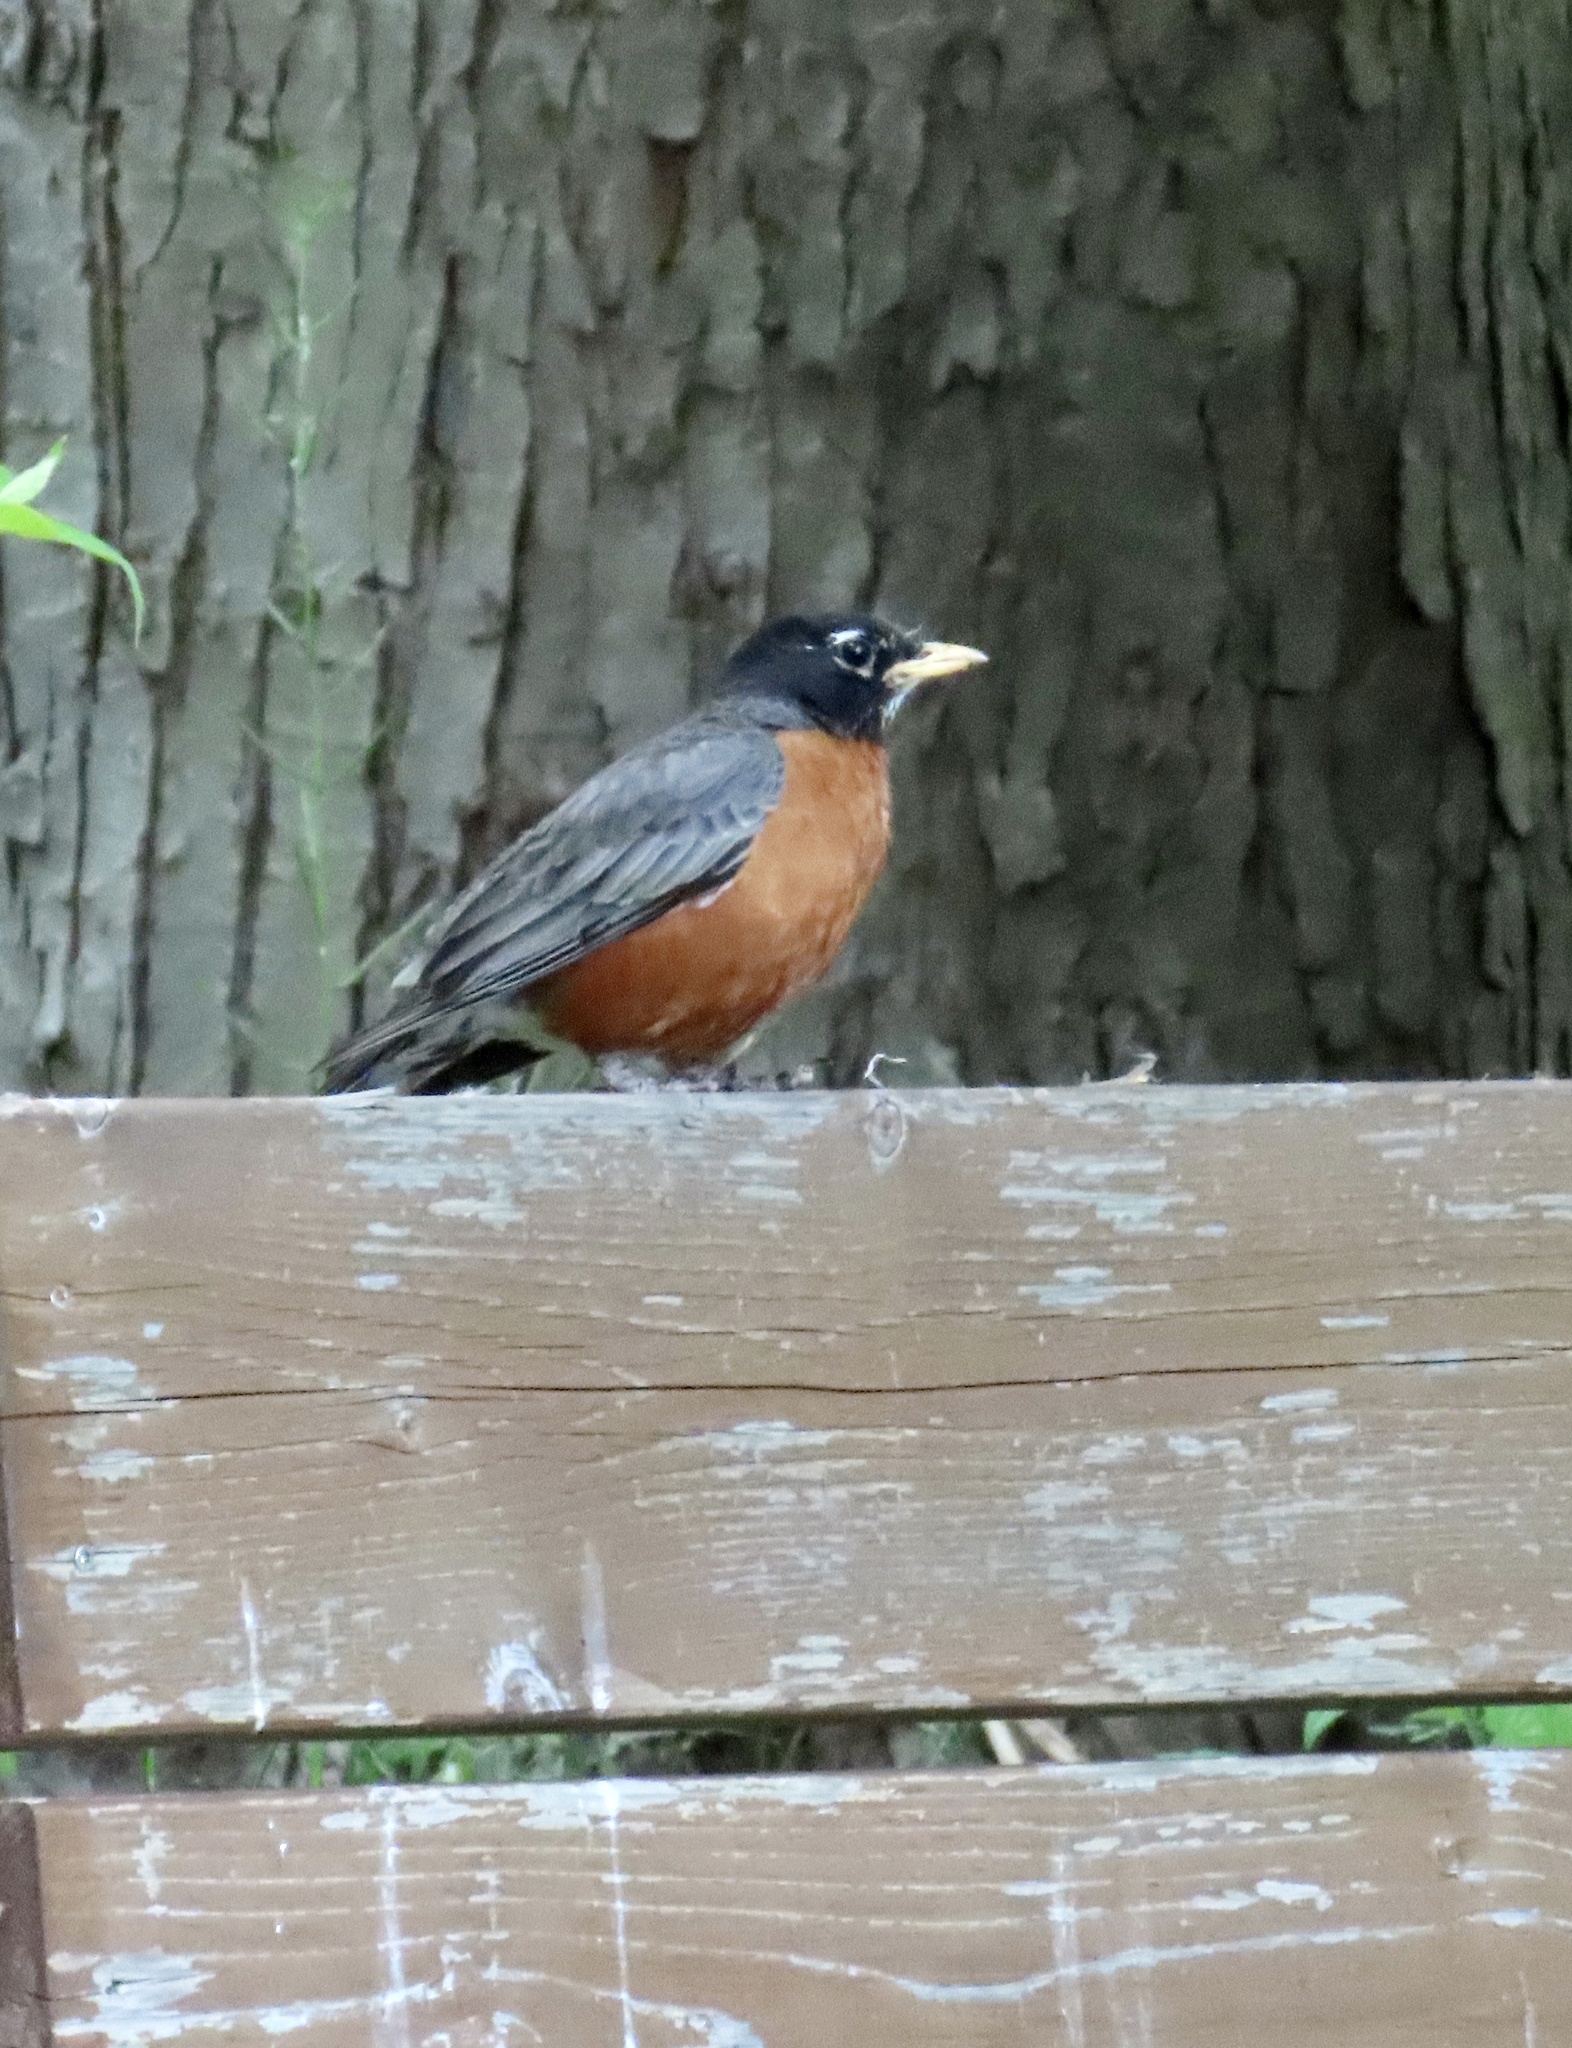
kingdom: Animalia
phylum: Chordata
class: Aves
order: Passeriformes
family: Turdidae
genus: Turdus
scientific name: Turdus migratorius
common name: American robin
